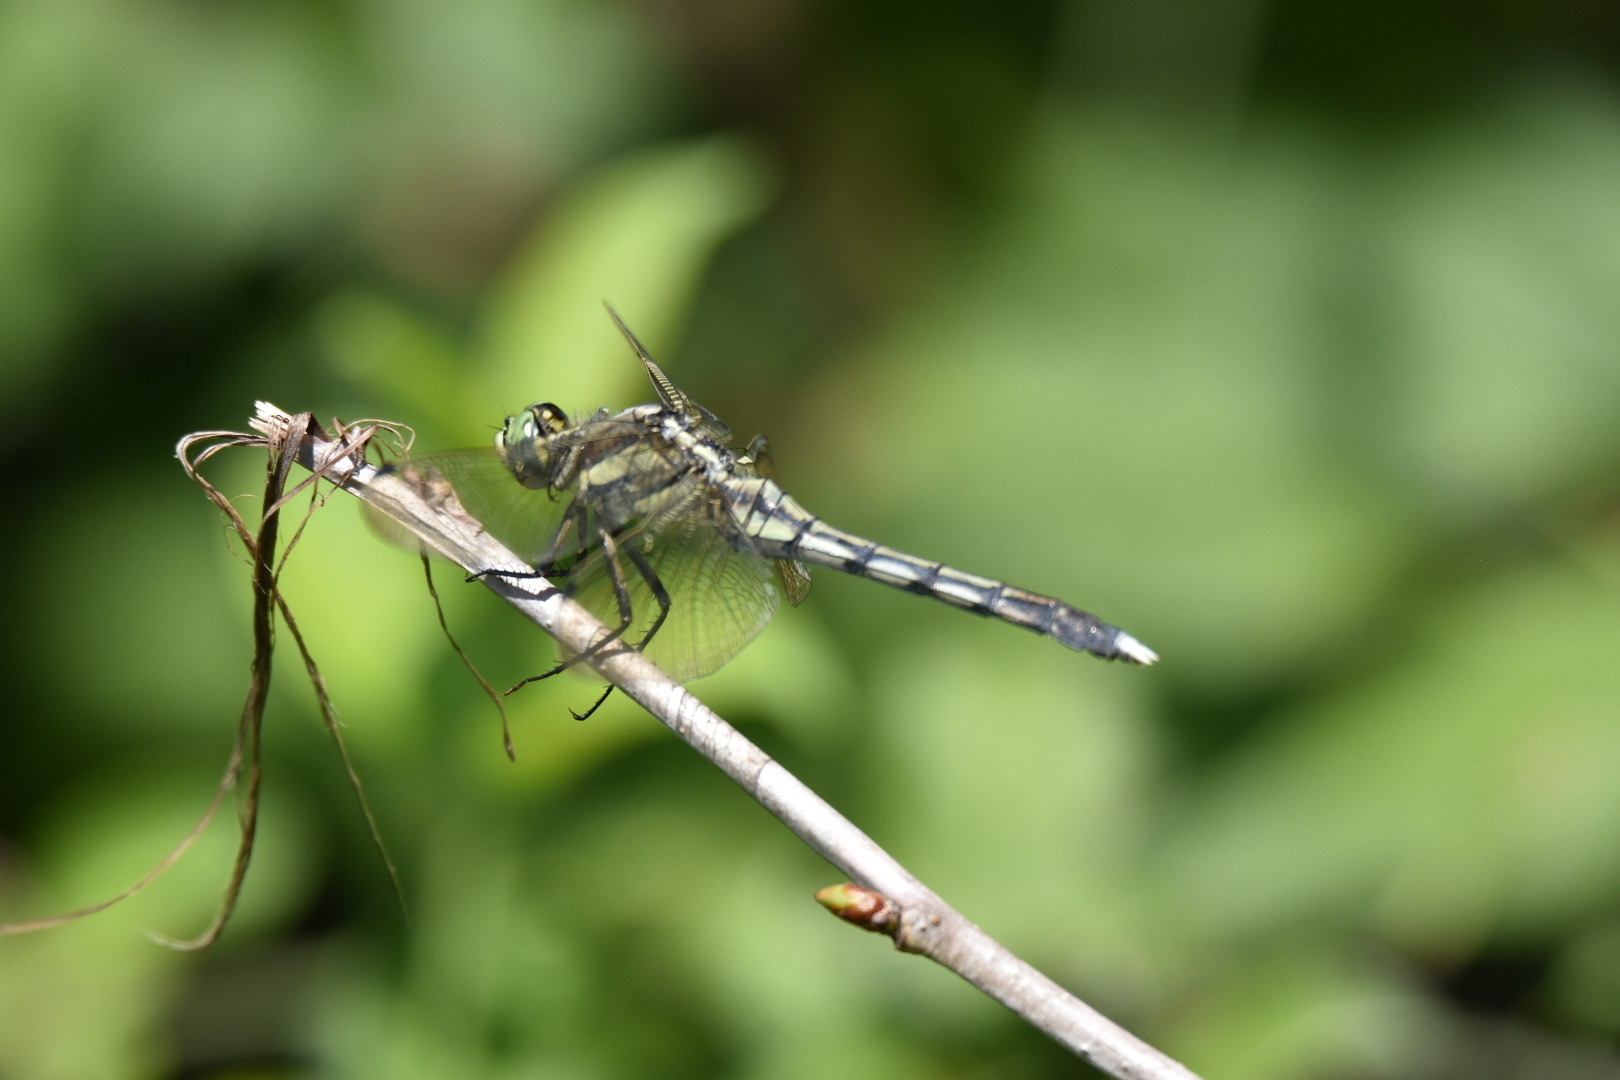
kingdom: Animalia
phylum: Arthropoda
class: Insecta
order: Odonata
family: Libellulidae
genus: Orthetrum
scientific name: Orthetrum albistylum
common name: White-tailed skimmer
